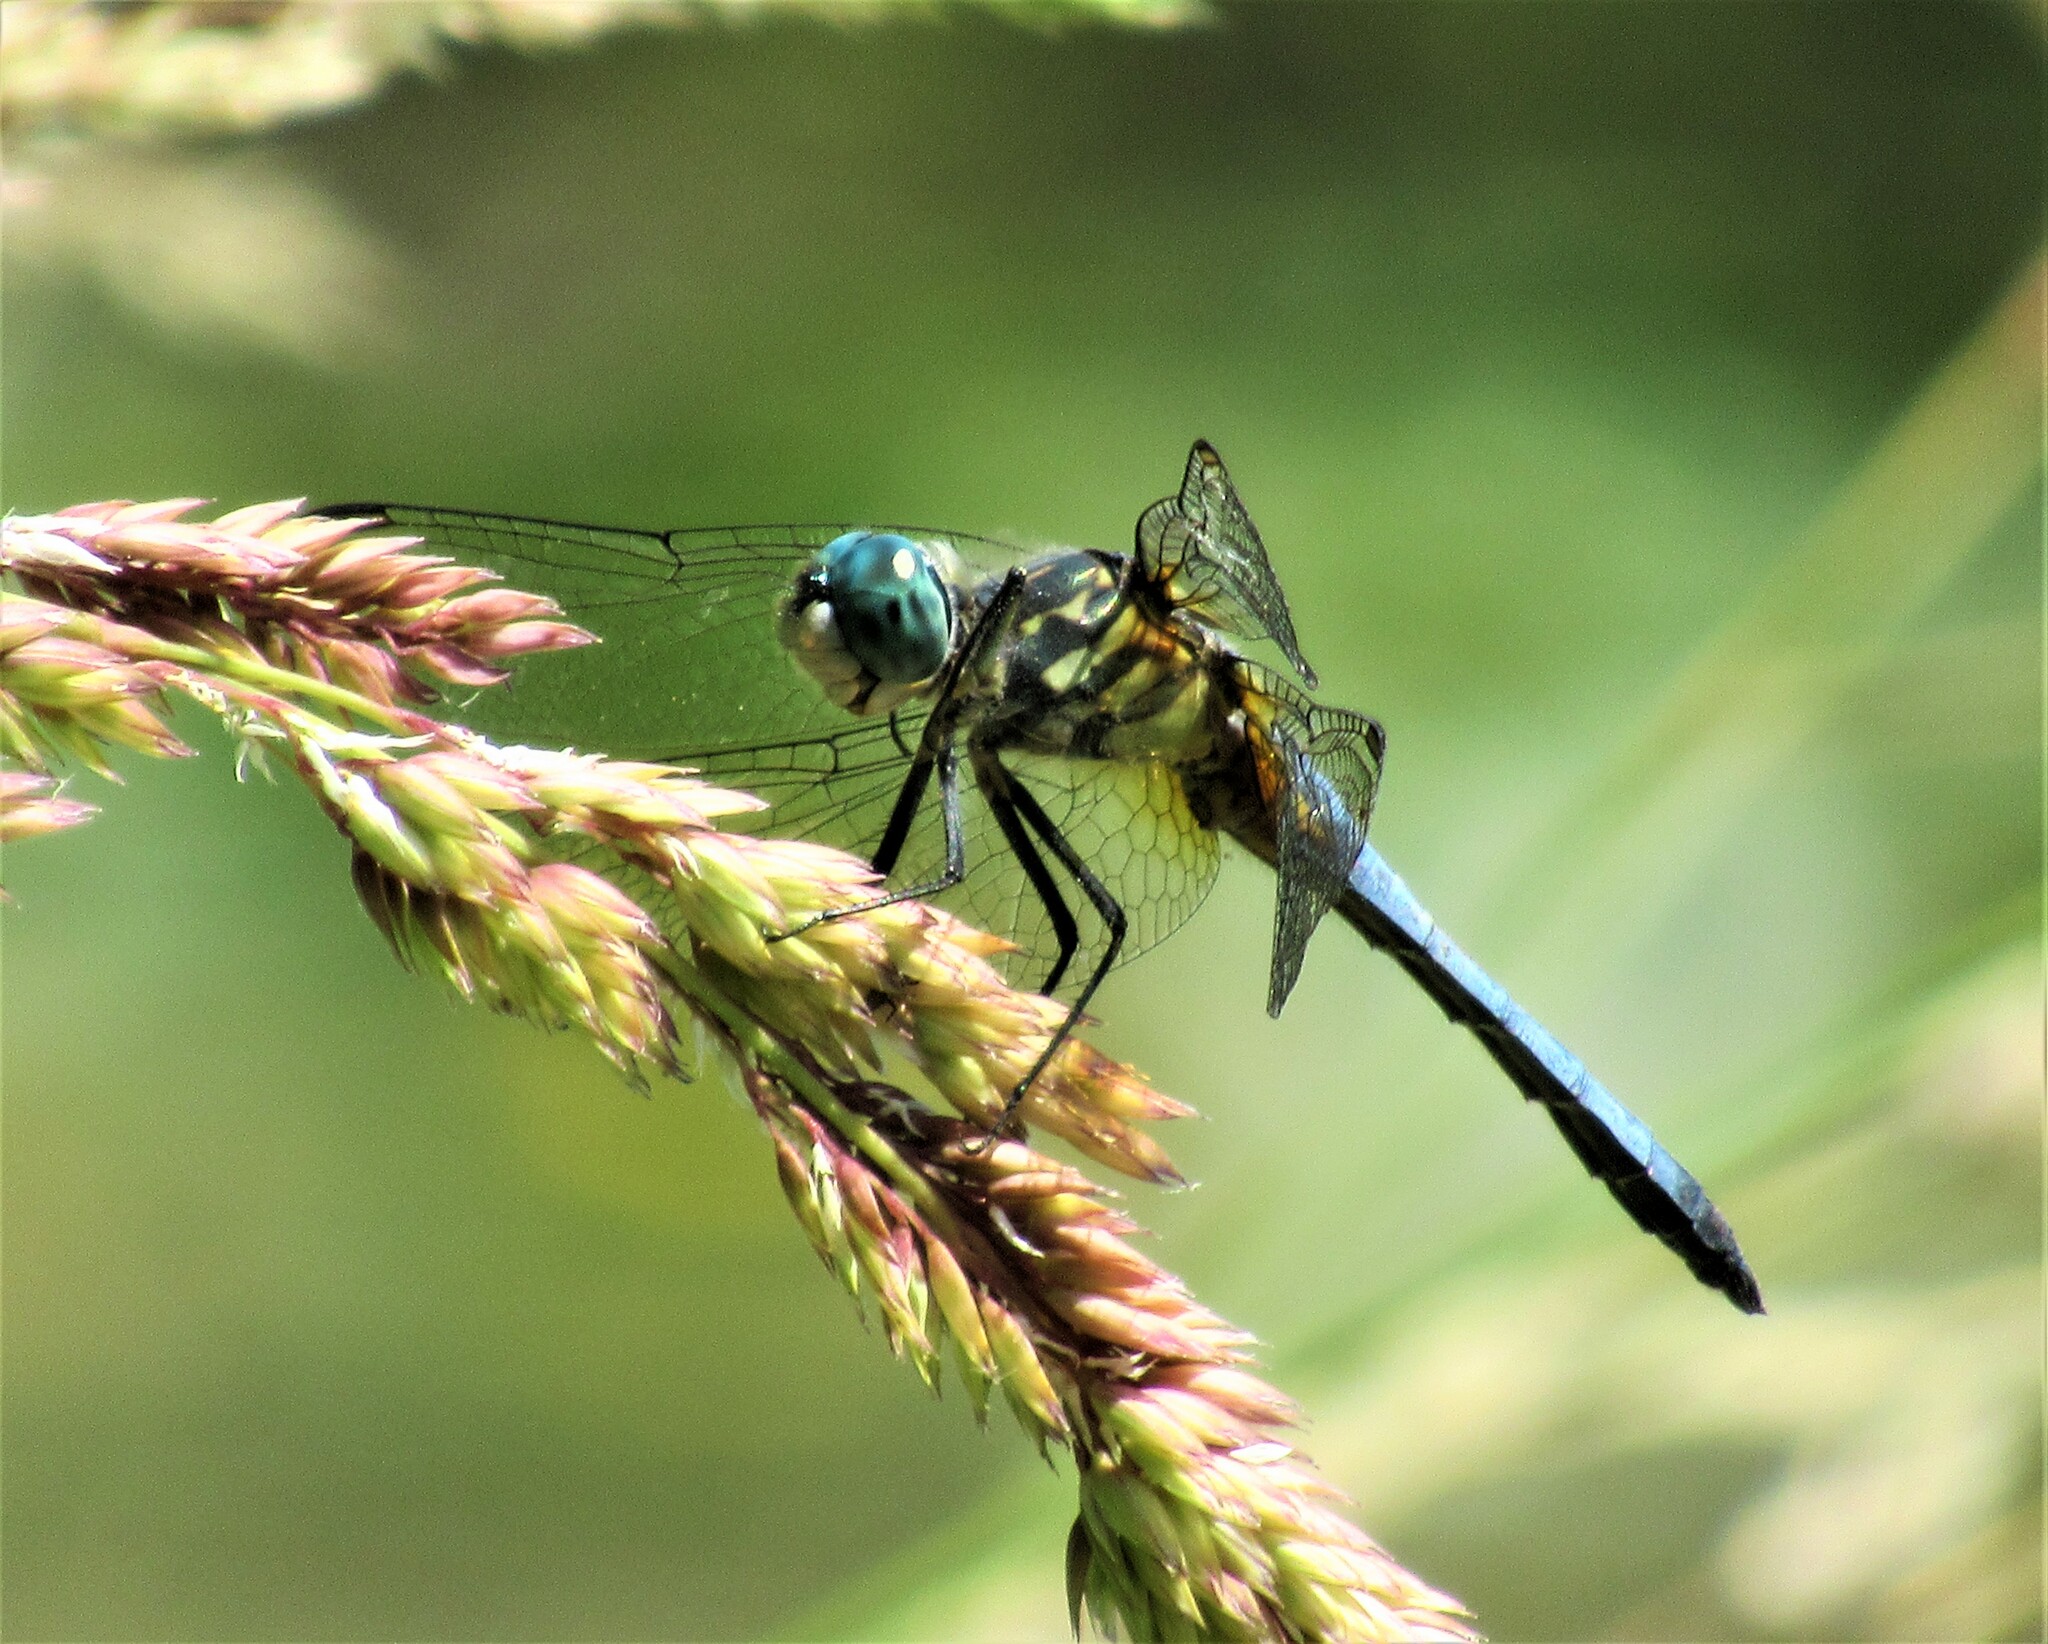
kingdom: Animalia
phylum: Arthropoda
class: Insecta
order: Odonata
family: Libellulidae
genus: Pachydiplax
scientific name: Pachydiplax longipennis
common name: Blue dasher
